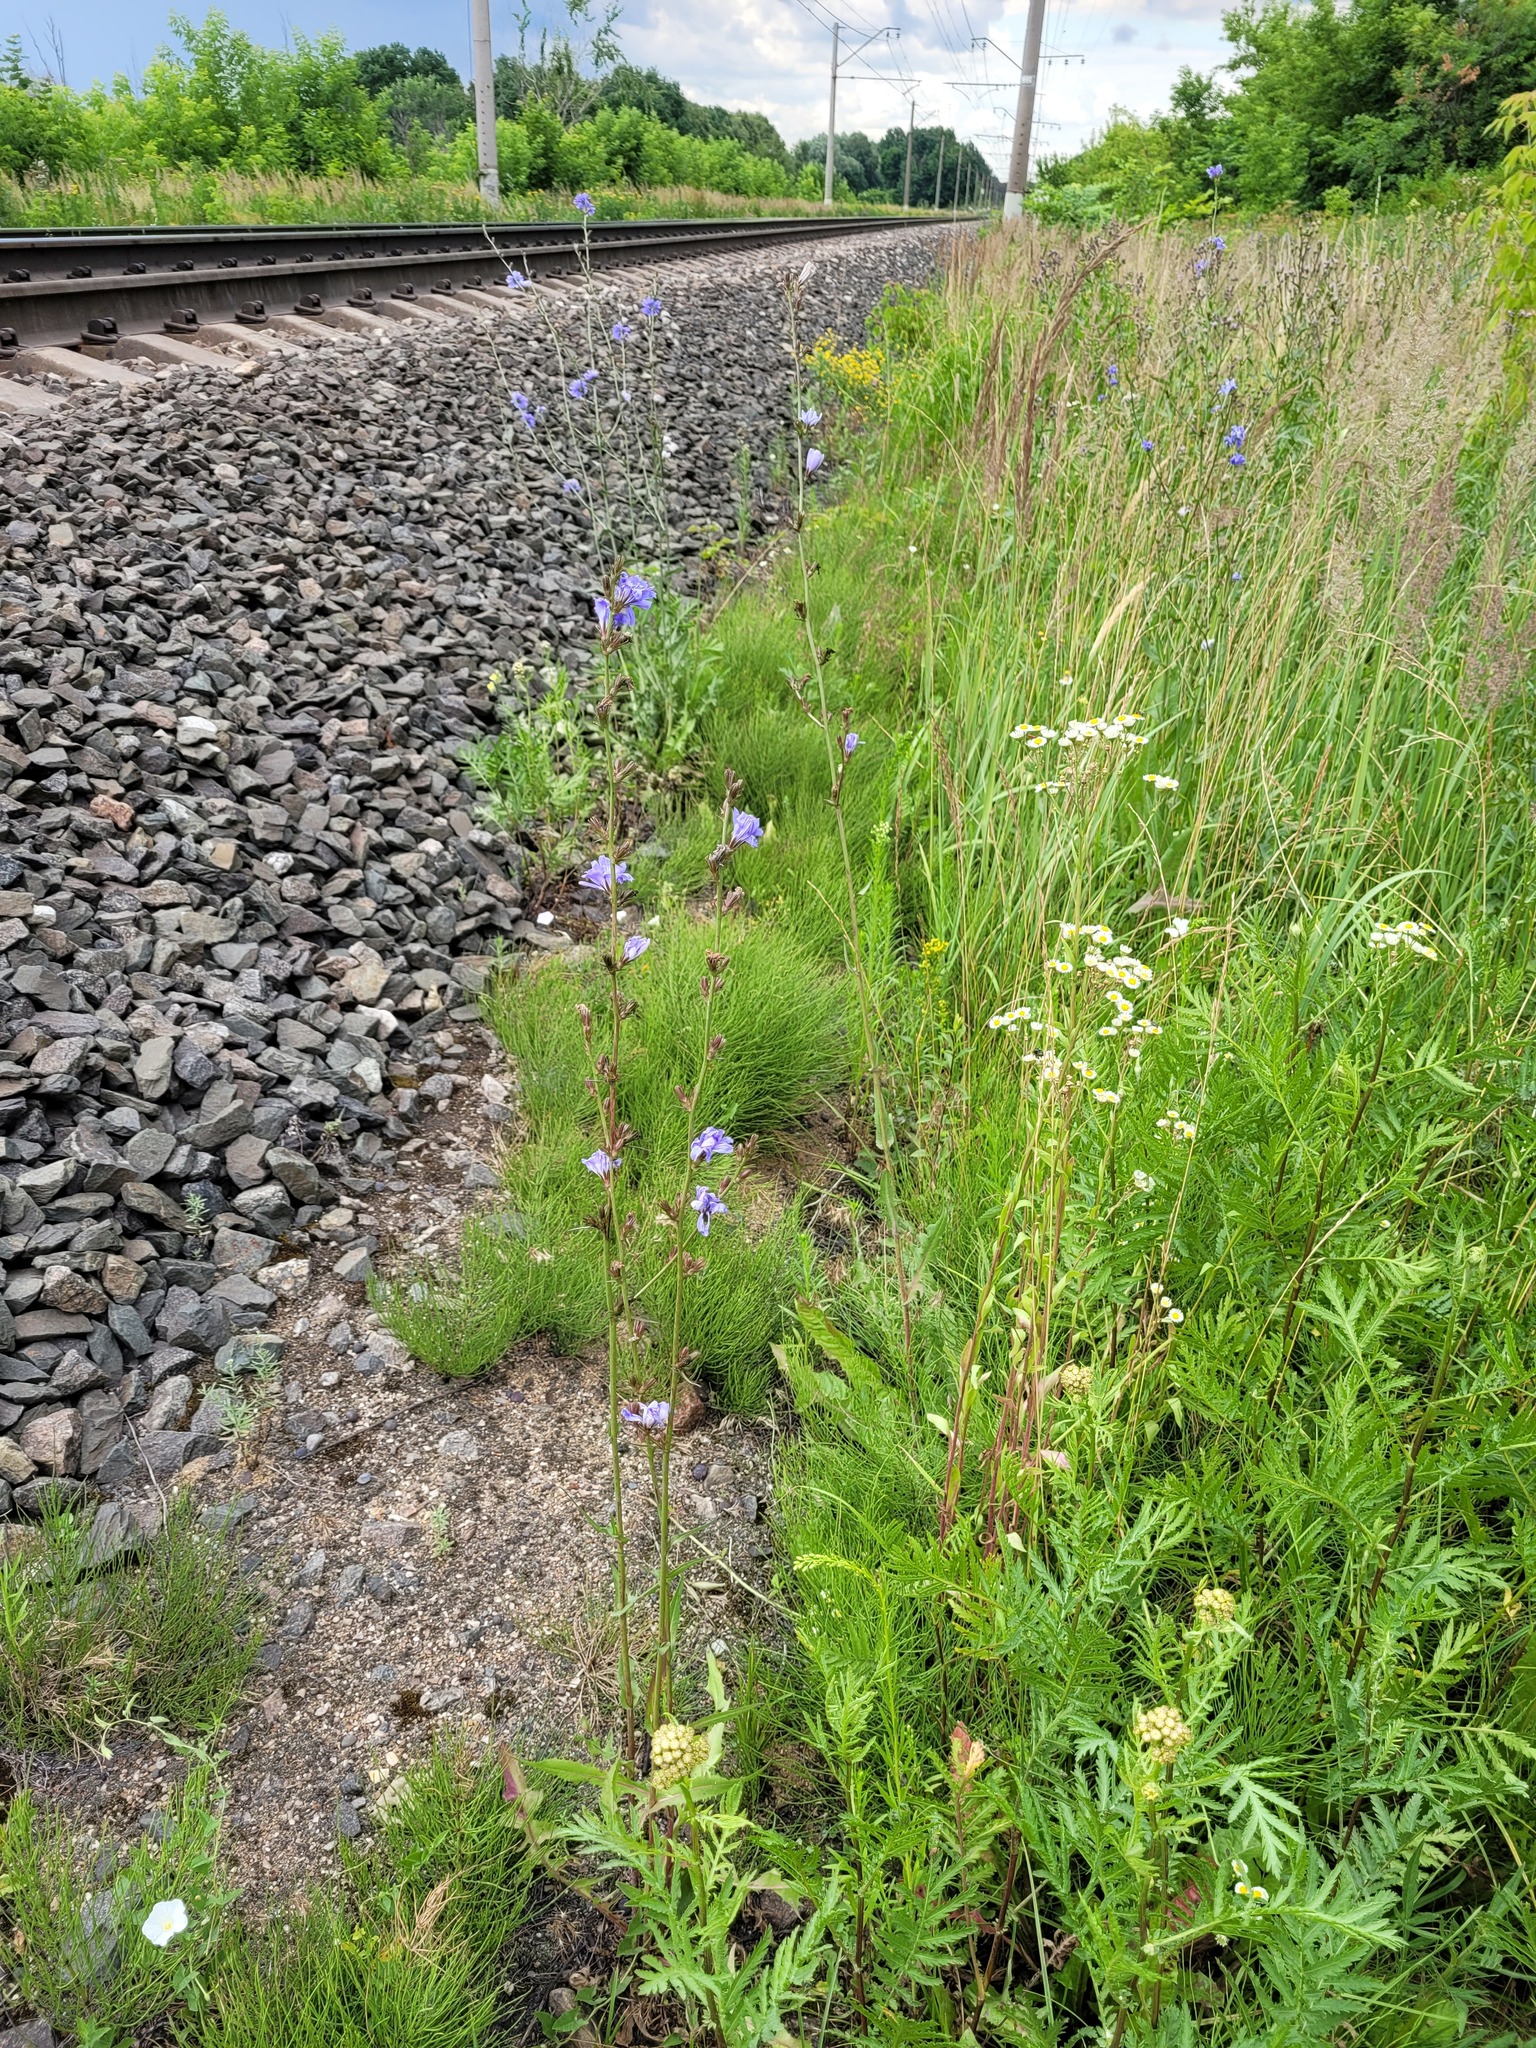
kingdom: Plantae
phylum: Tracheophyta
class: Magnoliopsida
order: Asterales
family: Asteraceae
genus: Cichorium
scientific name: Cichorium intybus
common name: Chicory
